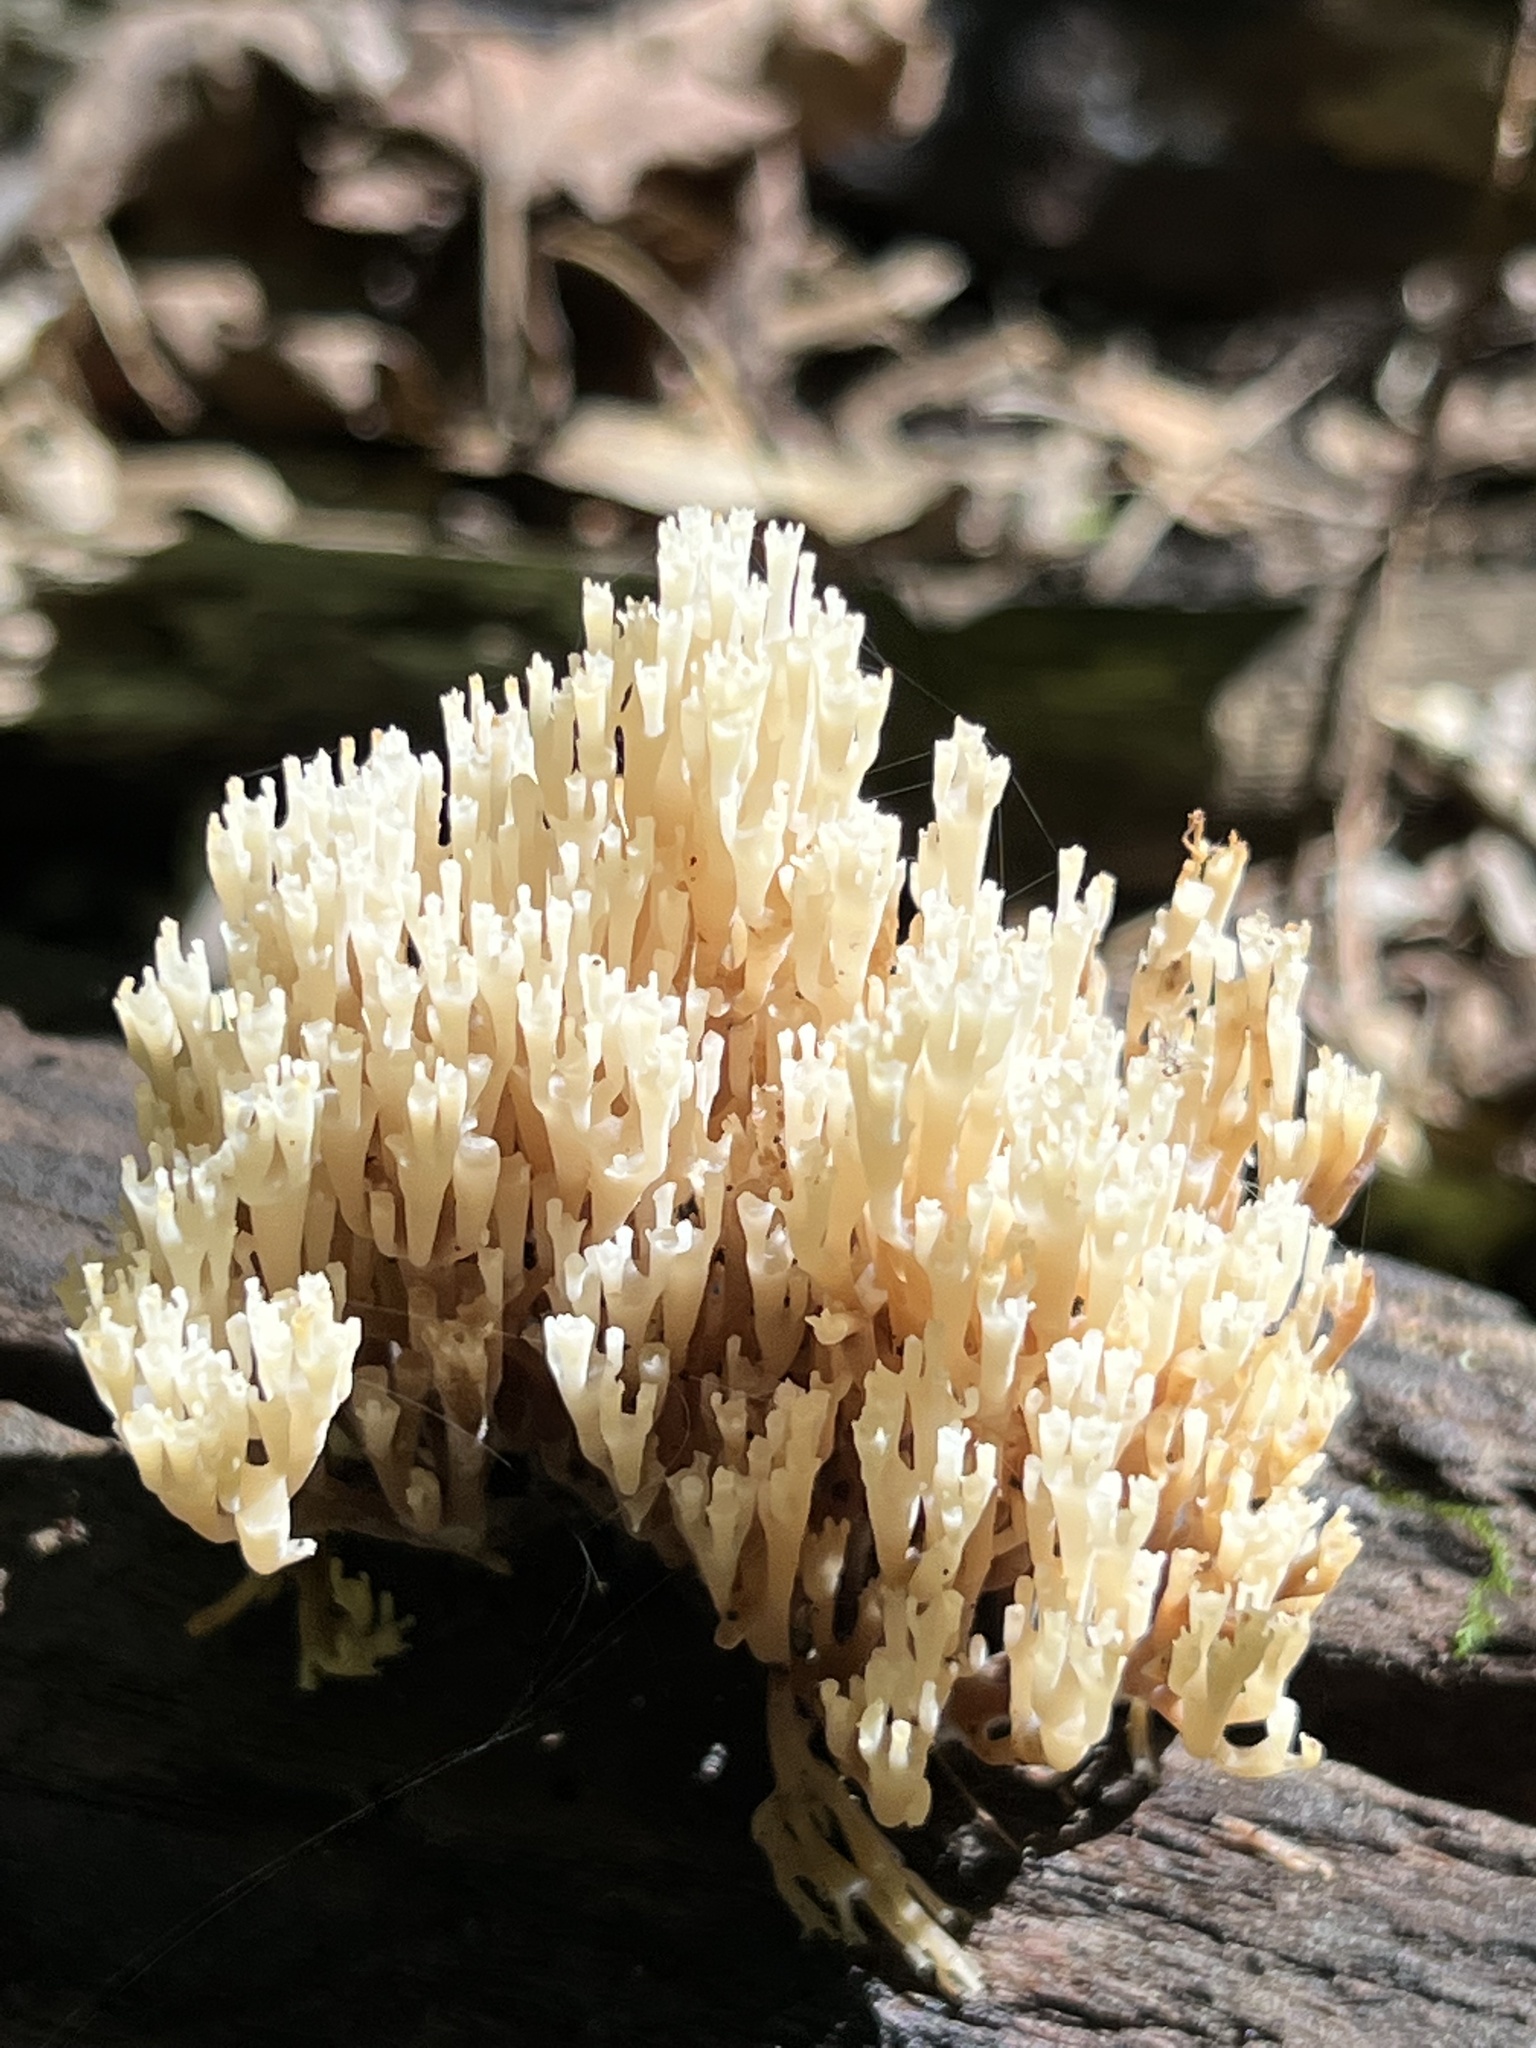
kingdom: Fungi
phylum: Basidiomycota
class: Agaricomycetes
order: Russulales
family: Auriscalpiaceae
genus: Artomyces
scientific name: Artomyces pyxidatus
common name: Crown-tipped coral fungus
